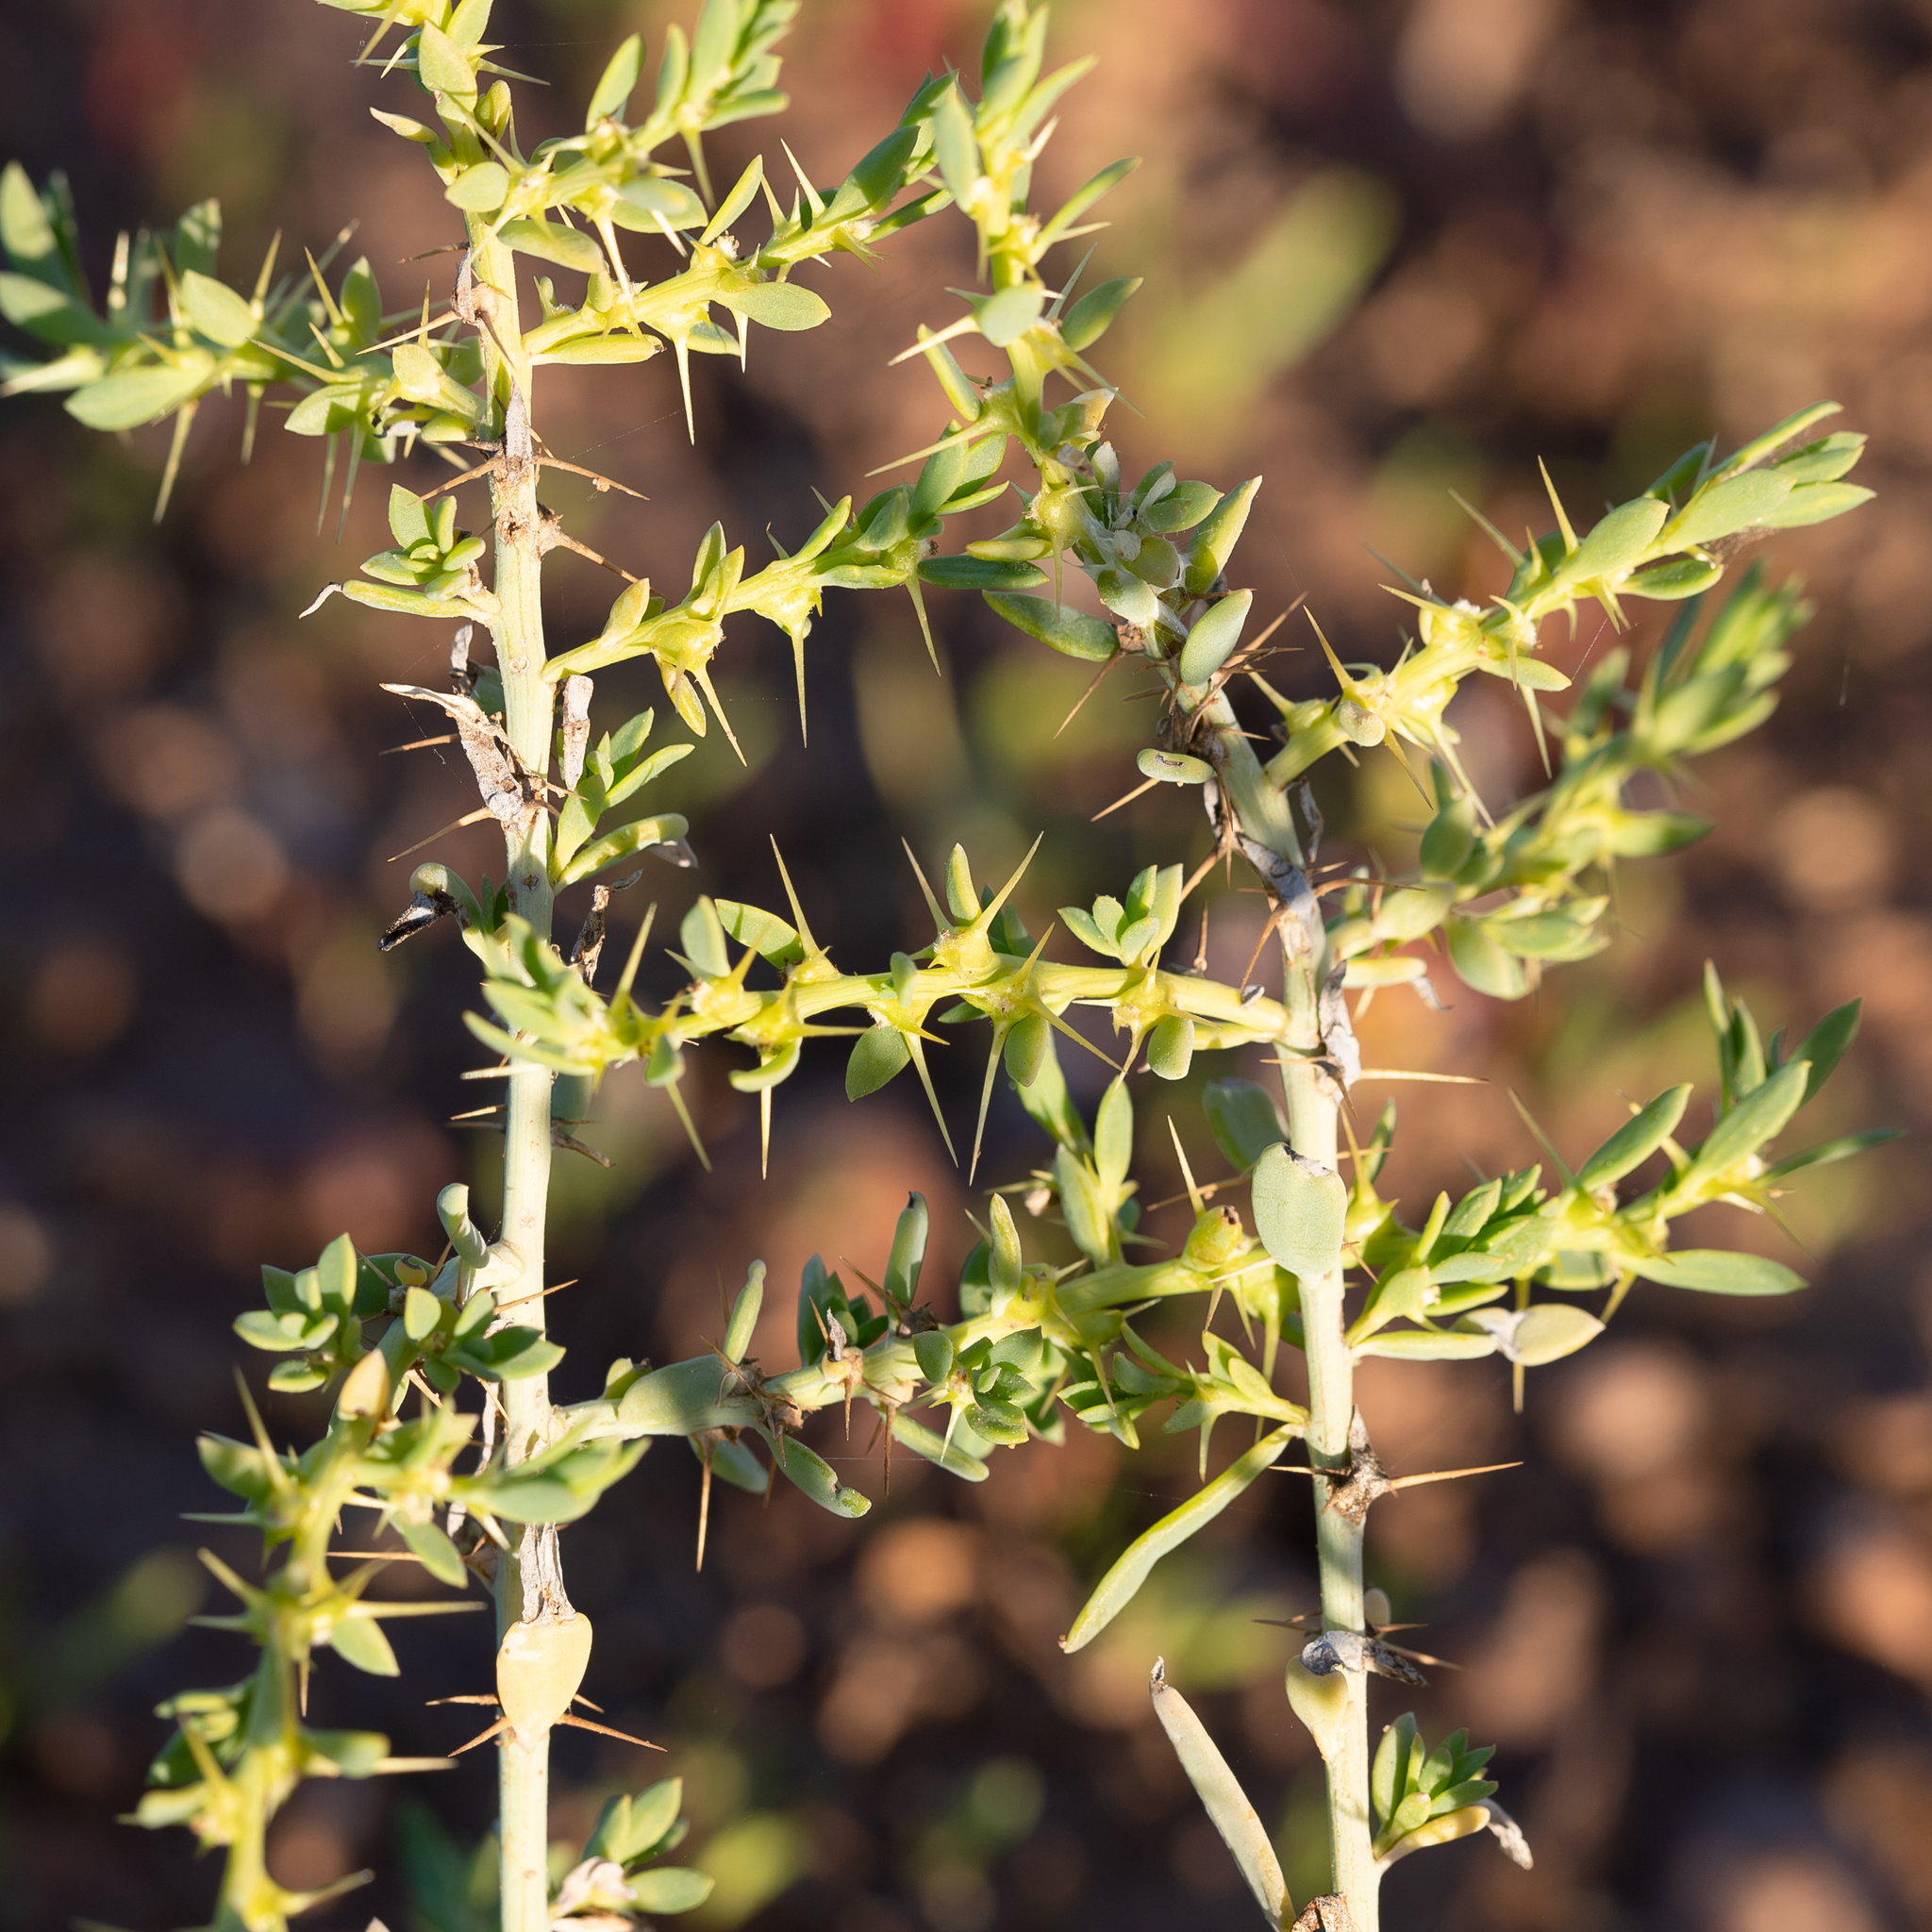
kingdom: Plantae
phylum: Tracheophyta
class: Magnoliopsida
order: Caryophyllales
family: Amaranthaceae
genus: Sclerolaena
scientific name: Sclerolaena muricata
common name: Roly-poly
